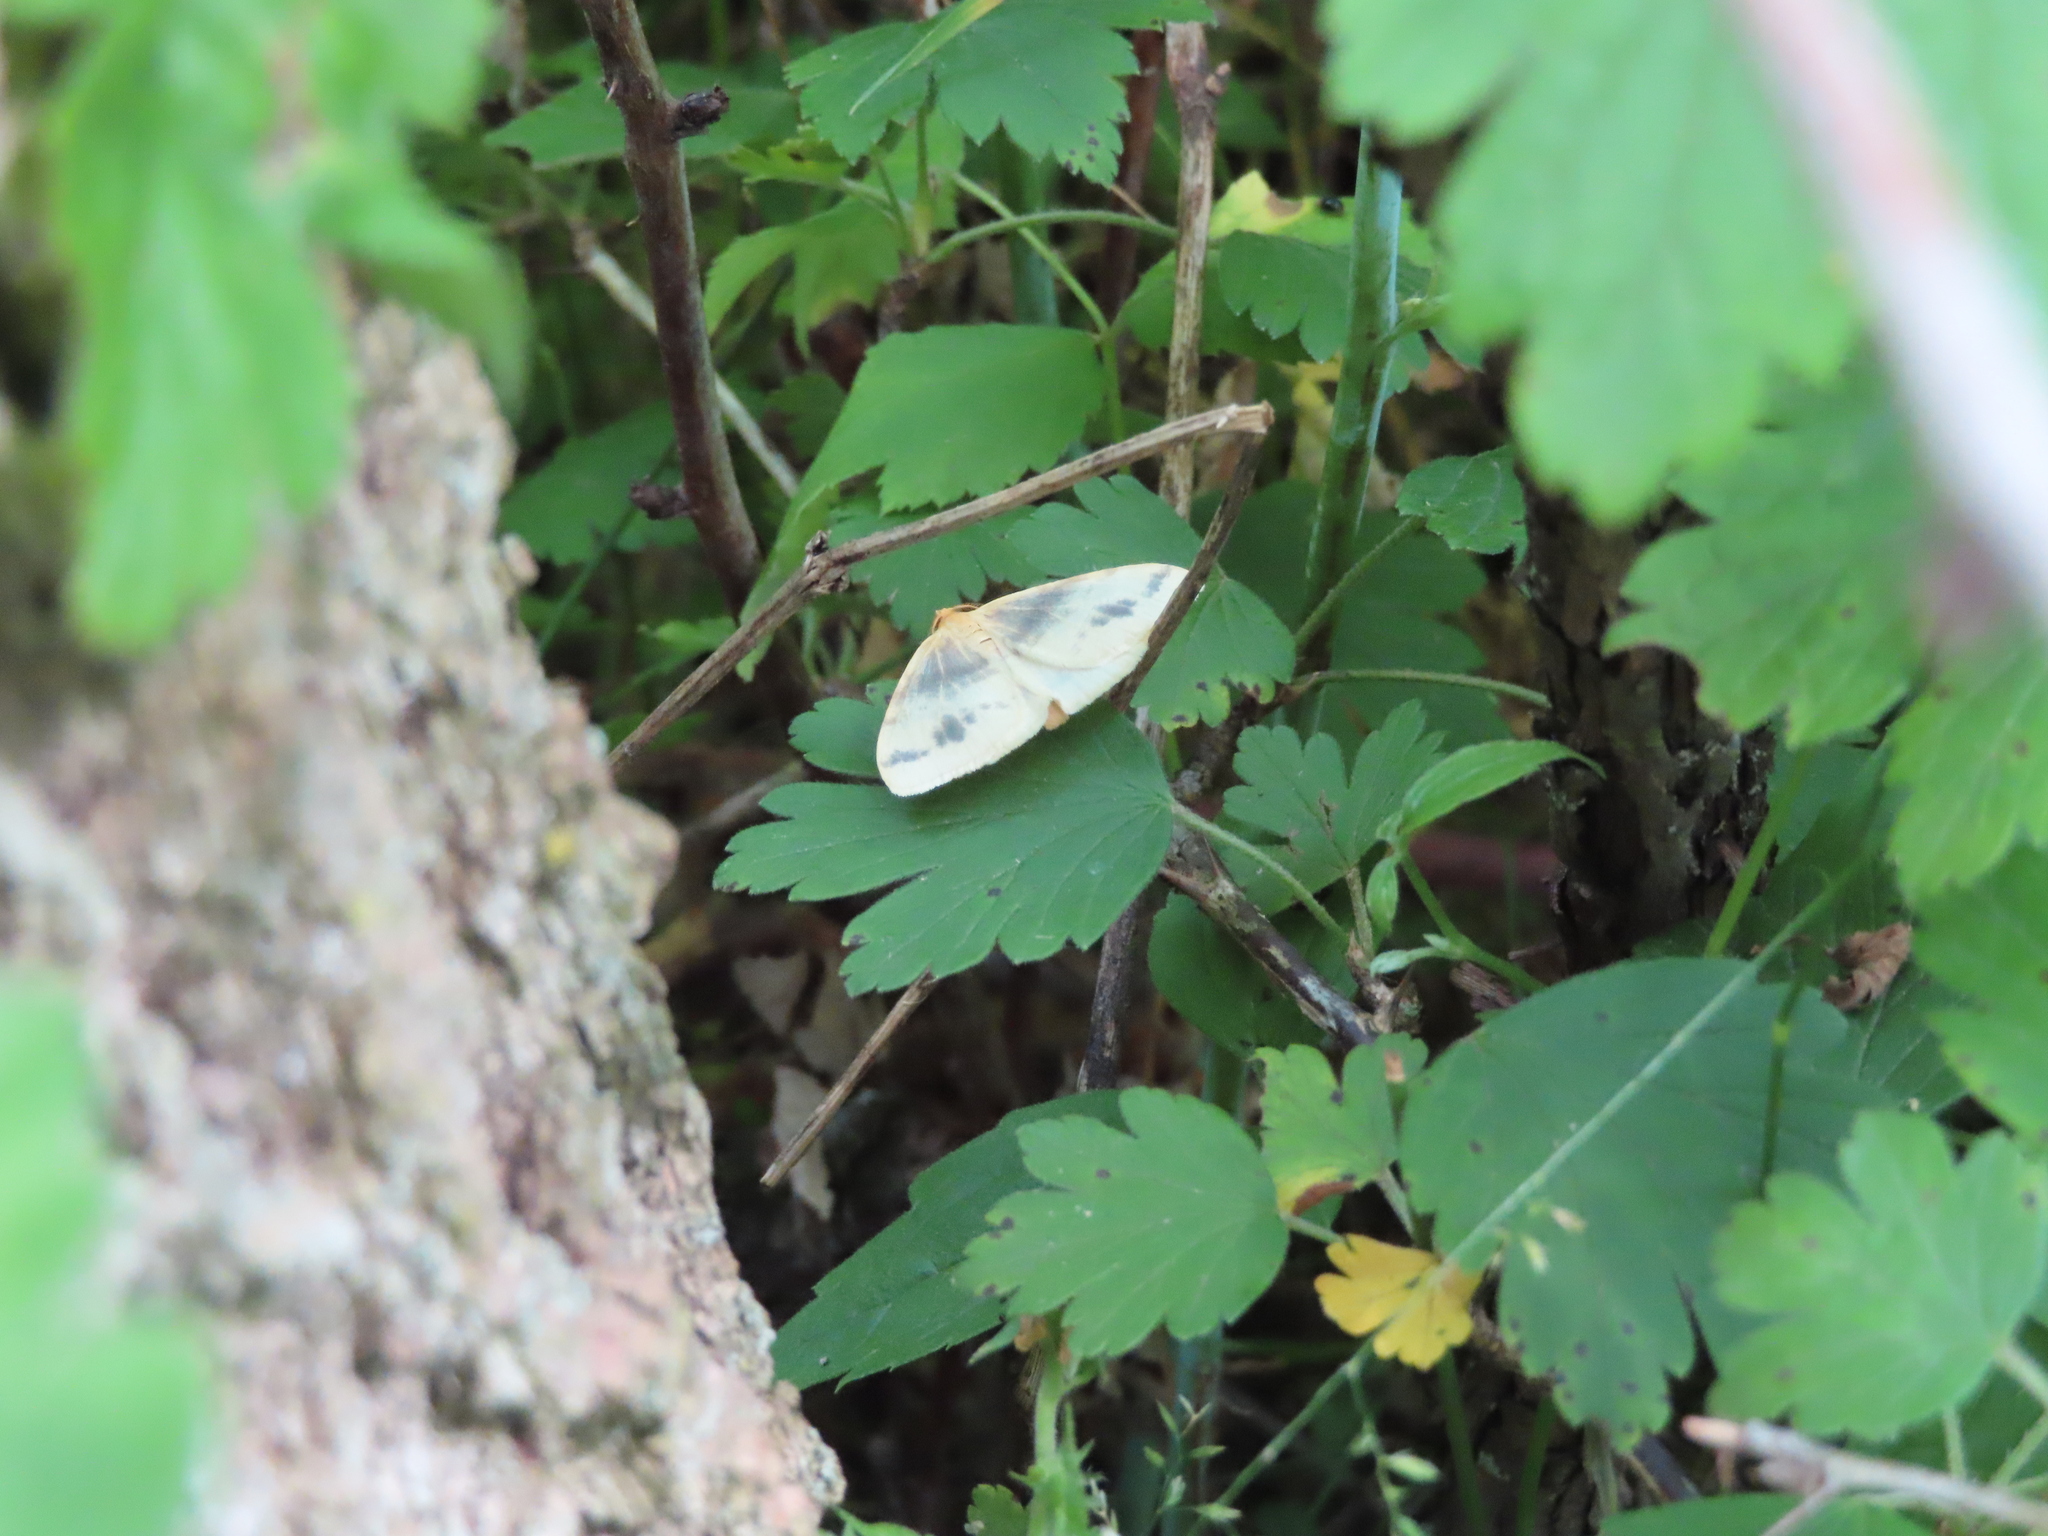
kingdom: Animalia
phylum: Arthropoda
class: Insecta
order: Lepidoptera
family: Geometridae
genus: Macaria
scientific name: Macaria ribearia
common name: Currant spanworm moth
